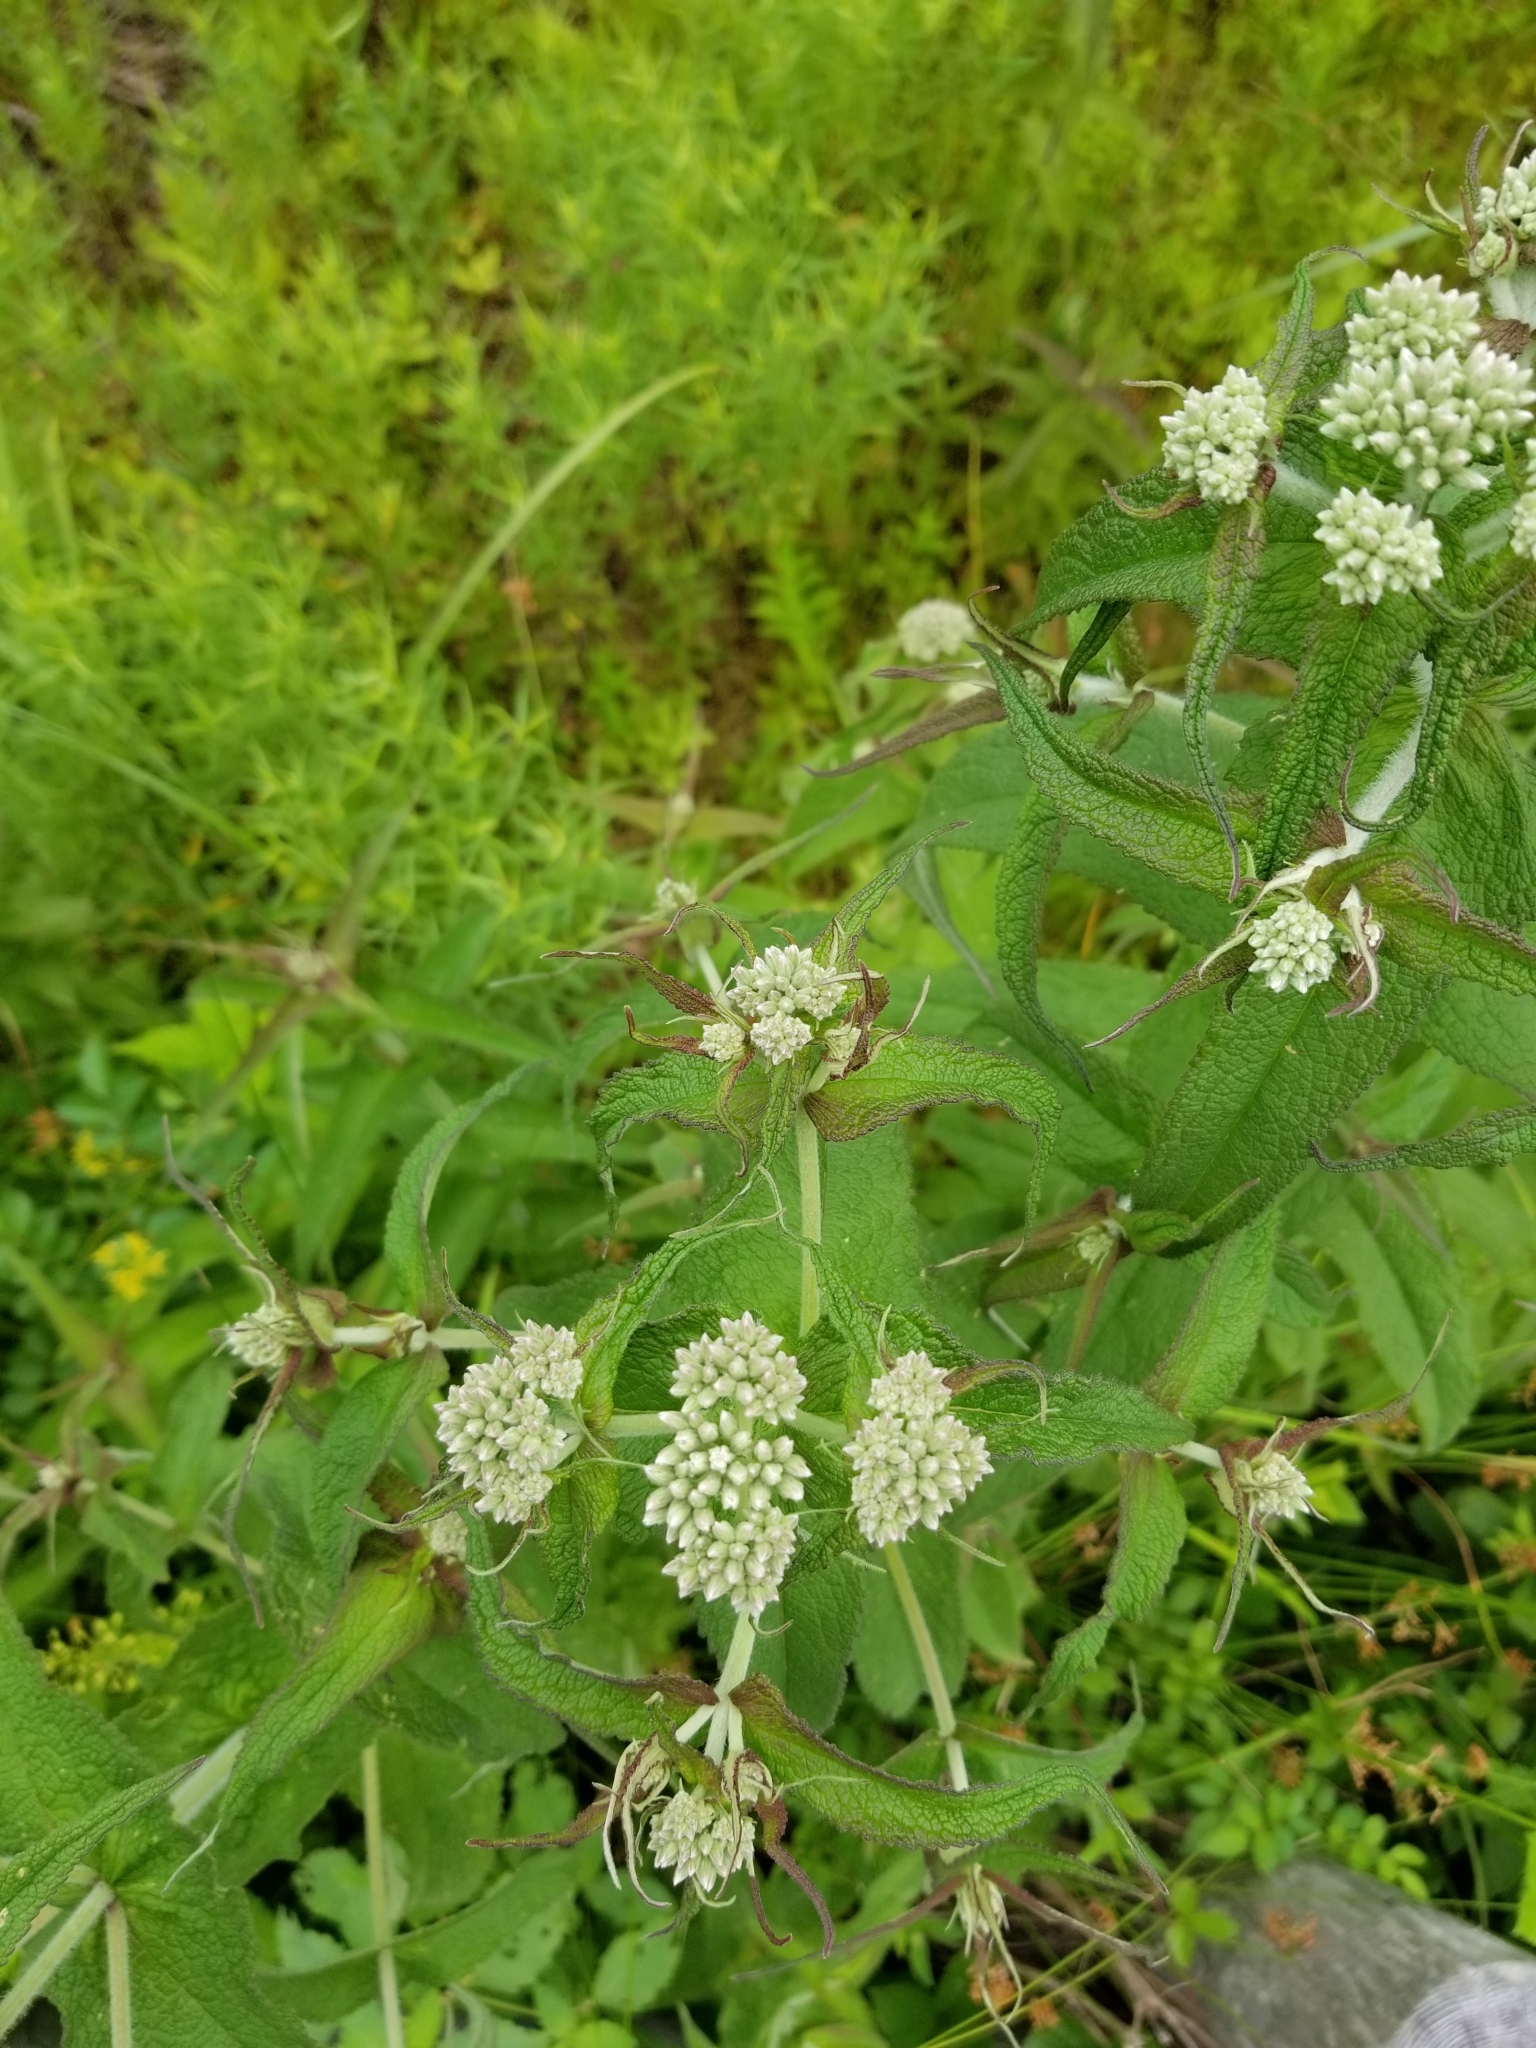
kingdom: Plantae
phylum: Tracheophyta
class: Magnoliopsida
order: Asterales
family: Asteraceae
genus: Eupatorium
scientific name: Eupatorium perfoliatum
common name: Boneset
